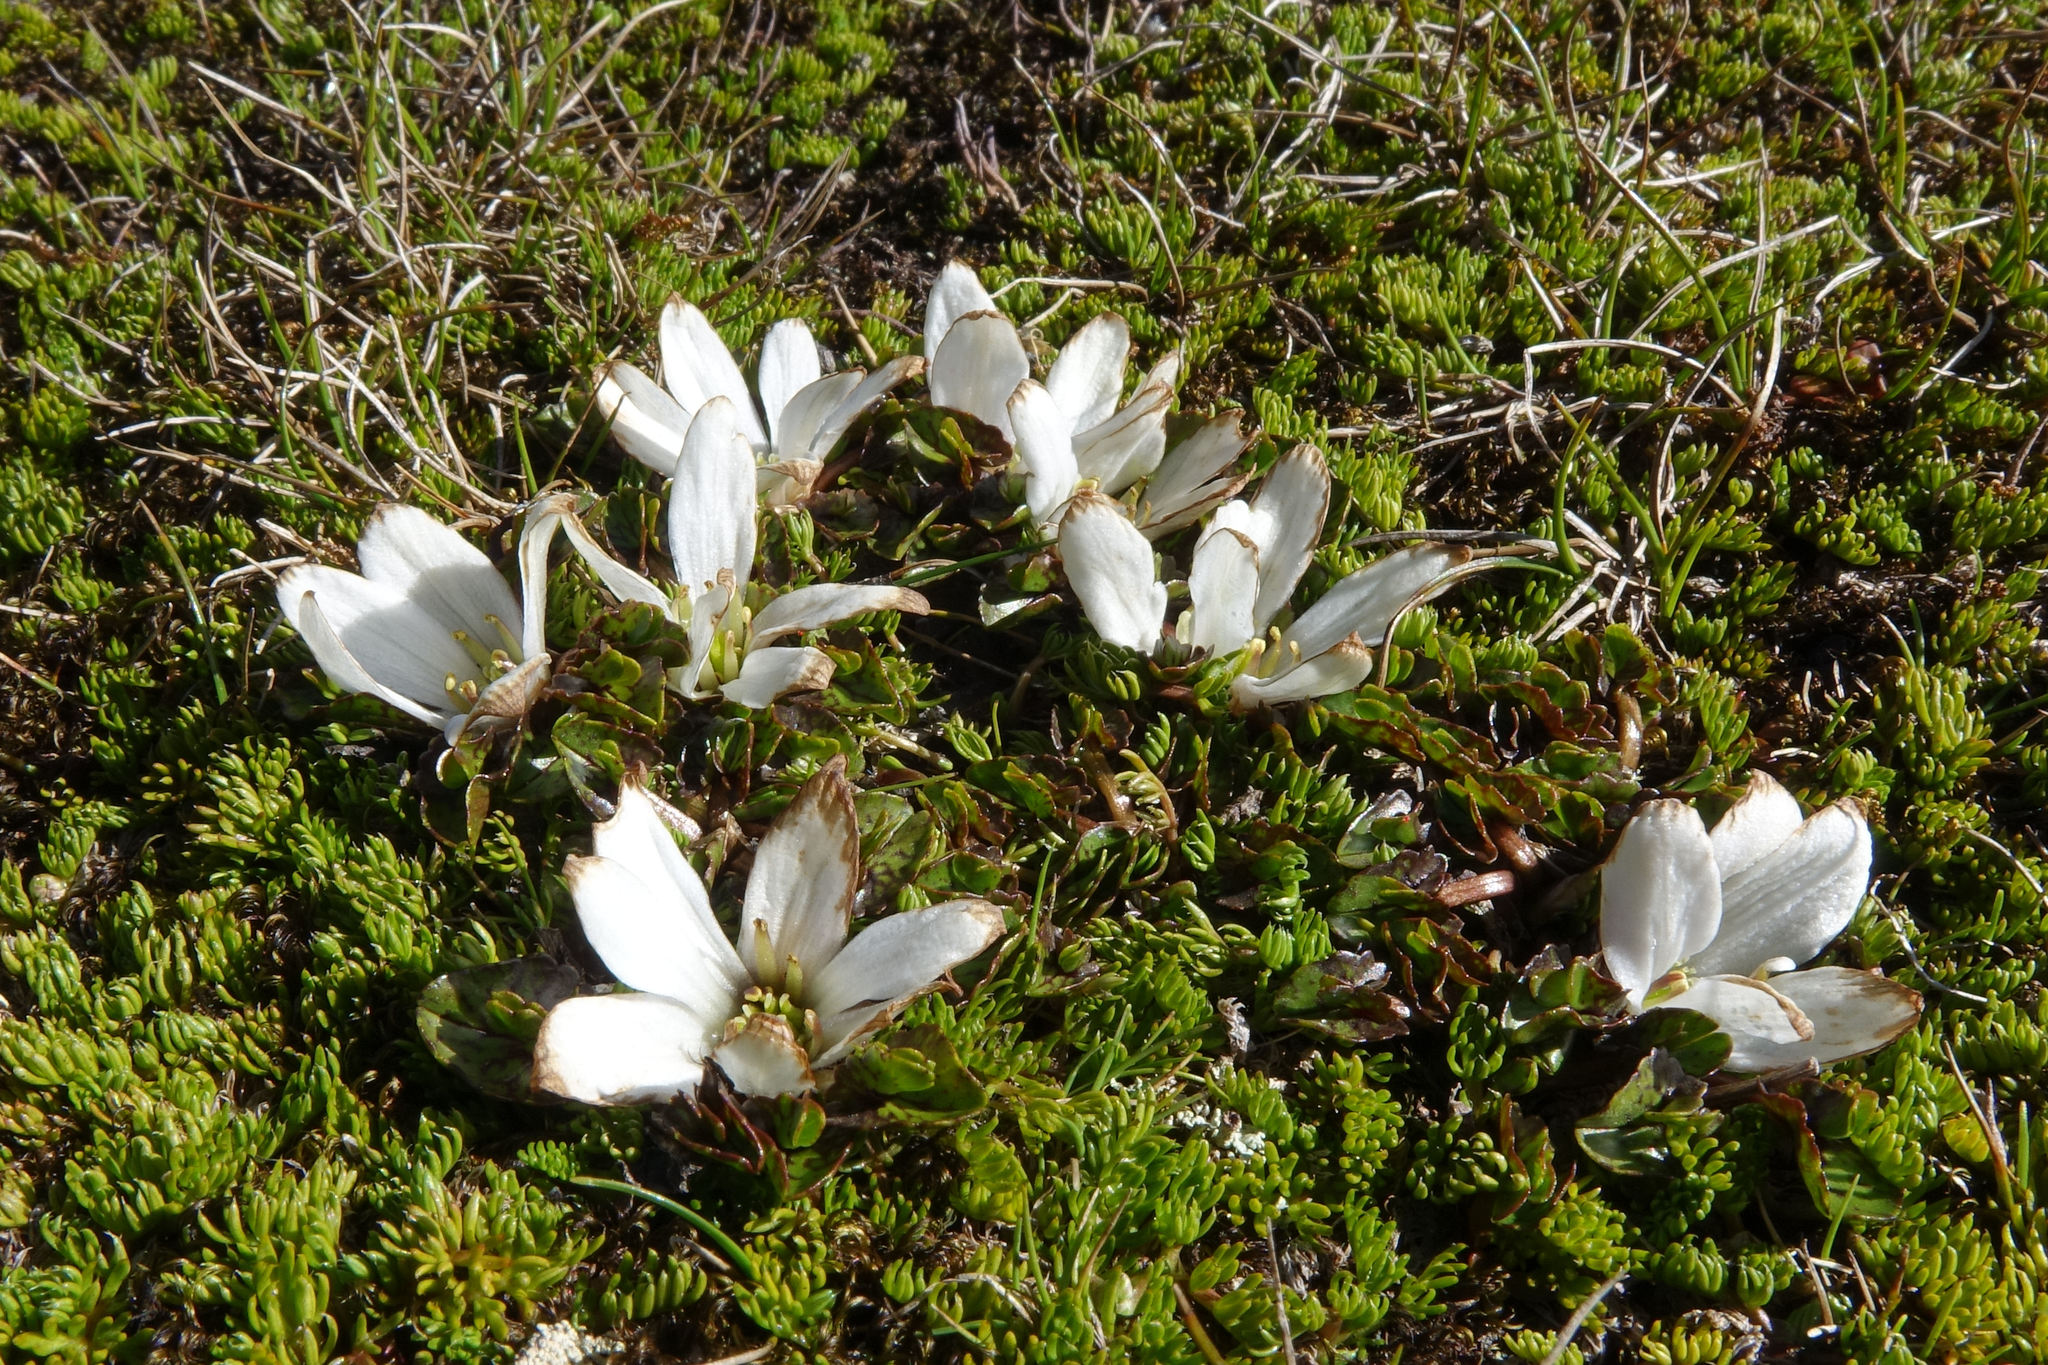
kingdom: Plantae
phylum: Tracheophyta
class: Magnoliopsida
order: Ranunculales
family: Ranunculaceae
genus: Caltha
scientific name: Caltha obtusa
